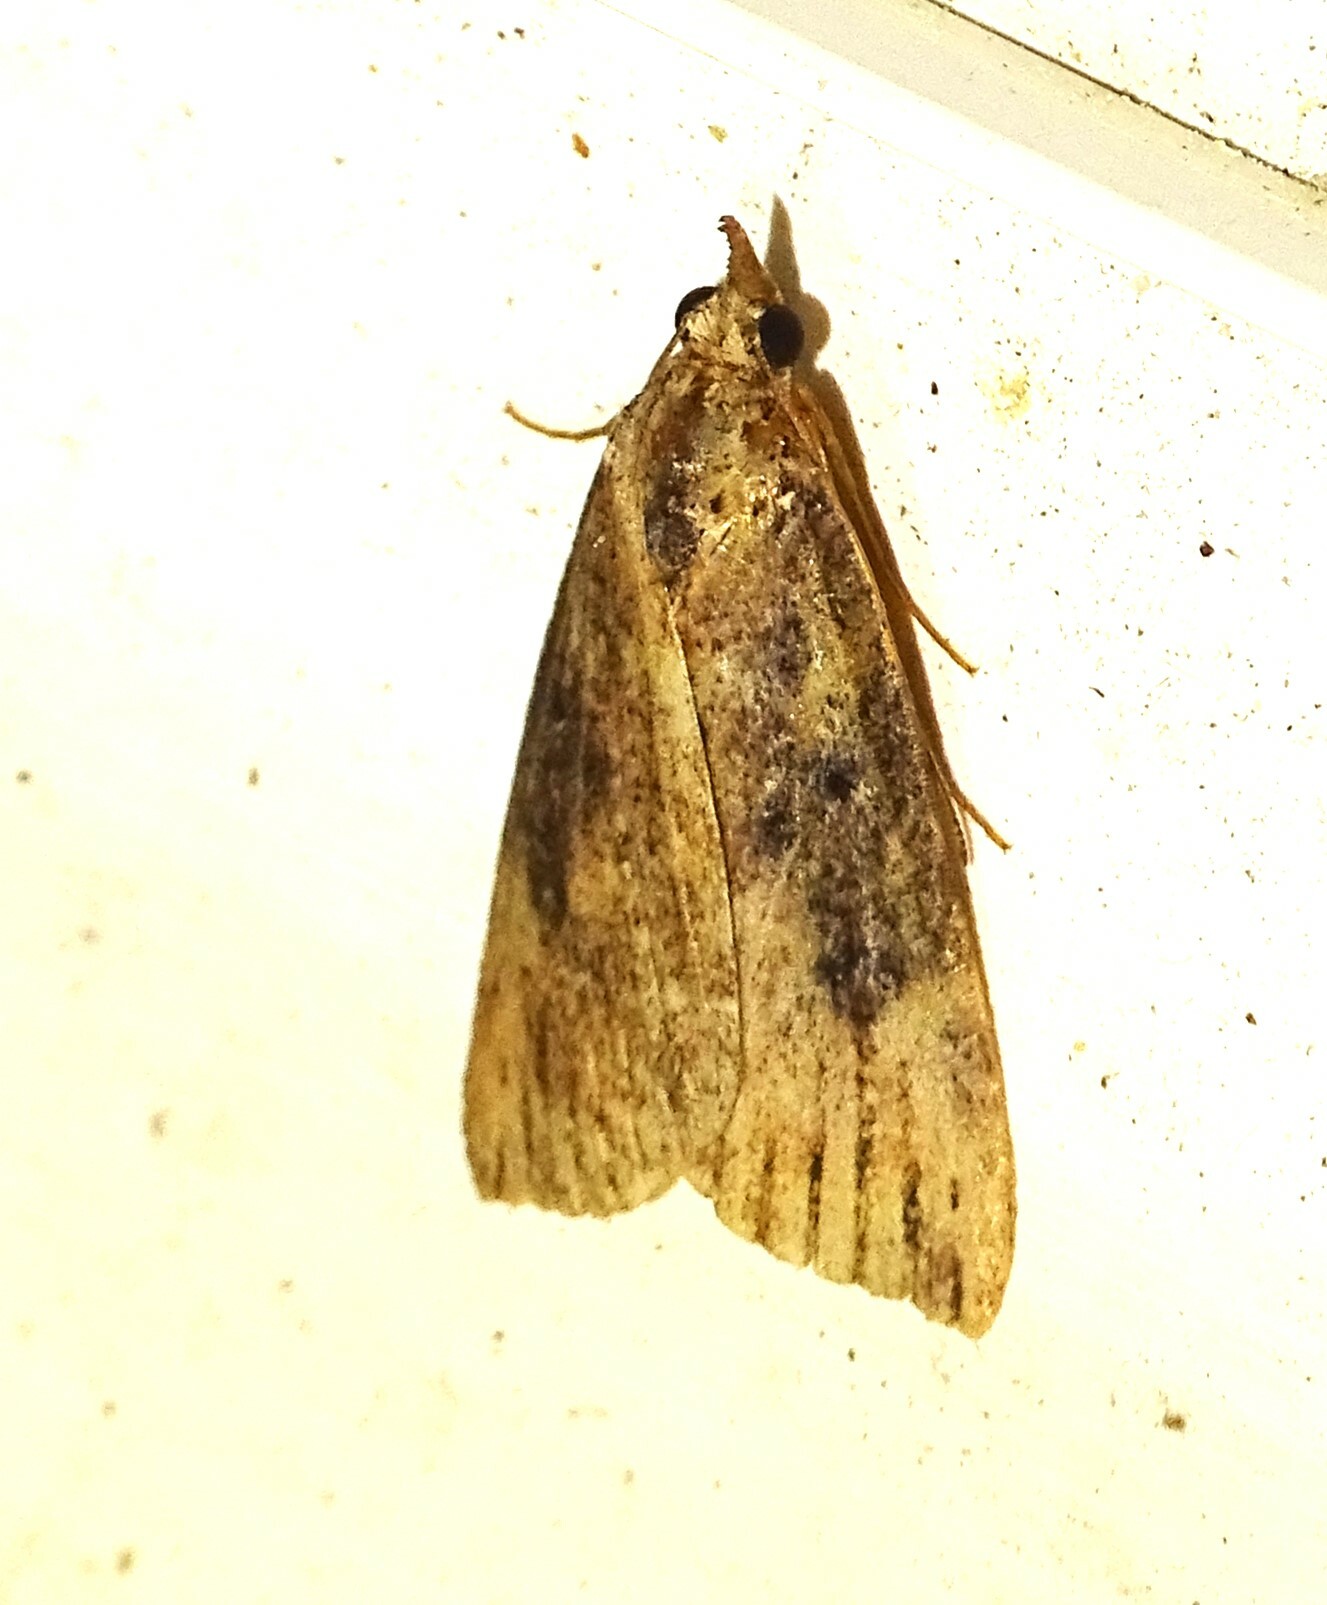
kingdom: Animalia
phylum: Arthropoda
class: Insecta
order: Lepidoptera
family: Erebidae
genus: Hypena
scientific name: Hypena humuli
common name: Hop vine snout
